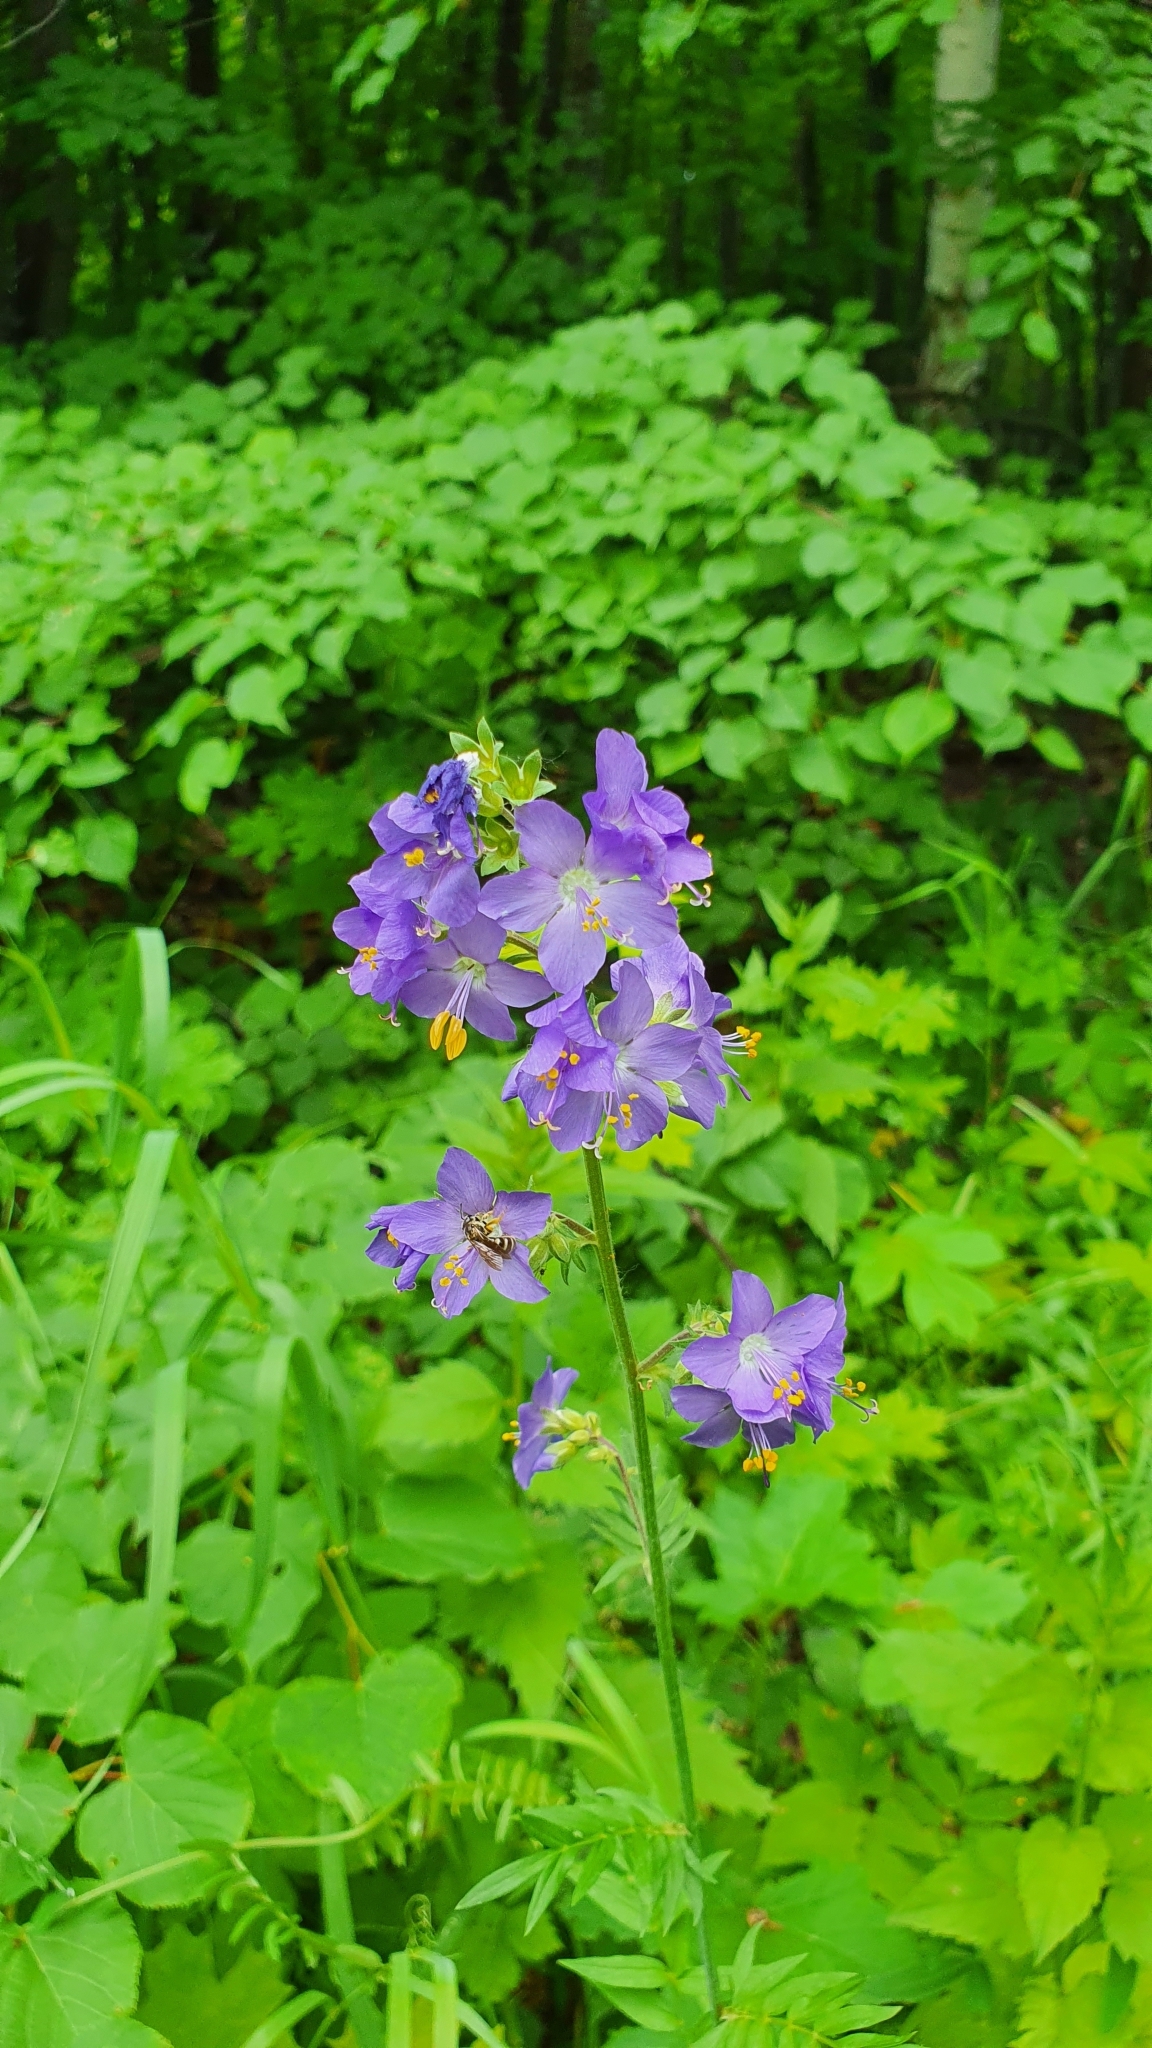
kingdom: Plantae
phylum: Tracheophyta
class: Magnoliopsida
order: Ericales
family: Polemoniaceae
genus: Polemonium
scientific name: Polemonium caeruleum
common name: Jacob's-ladder
